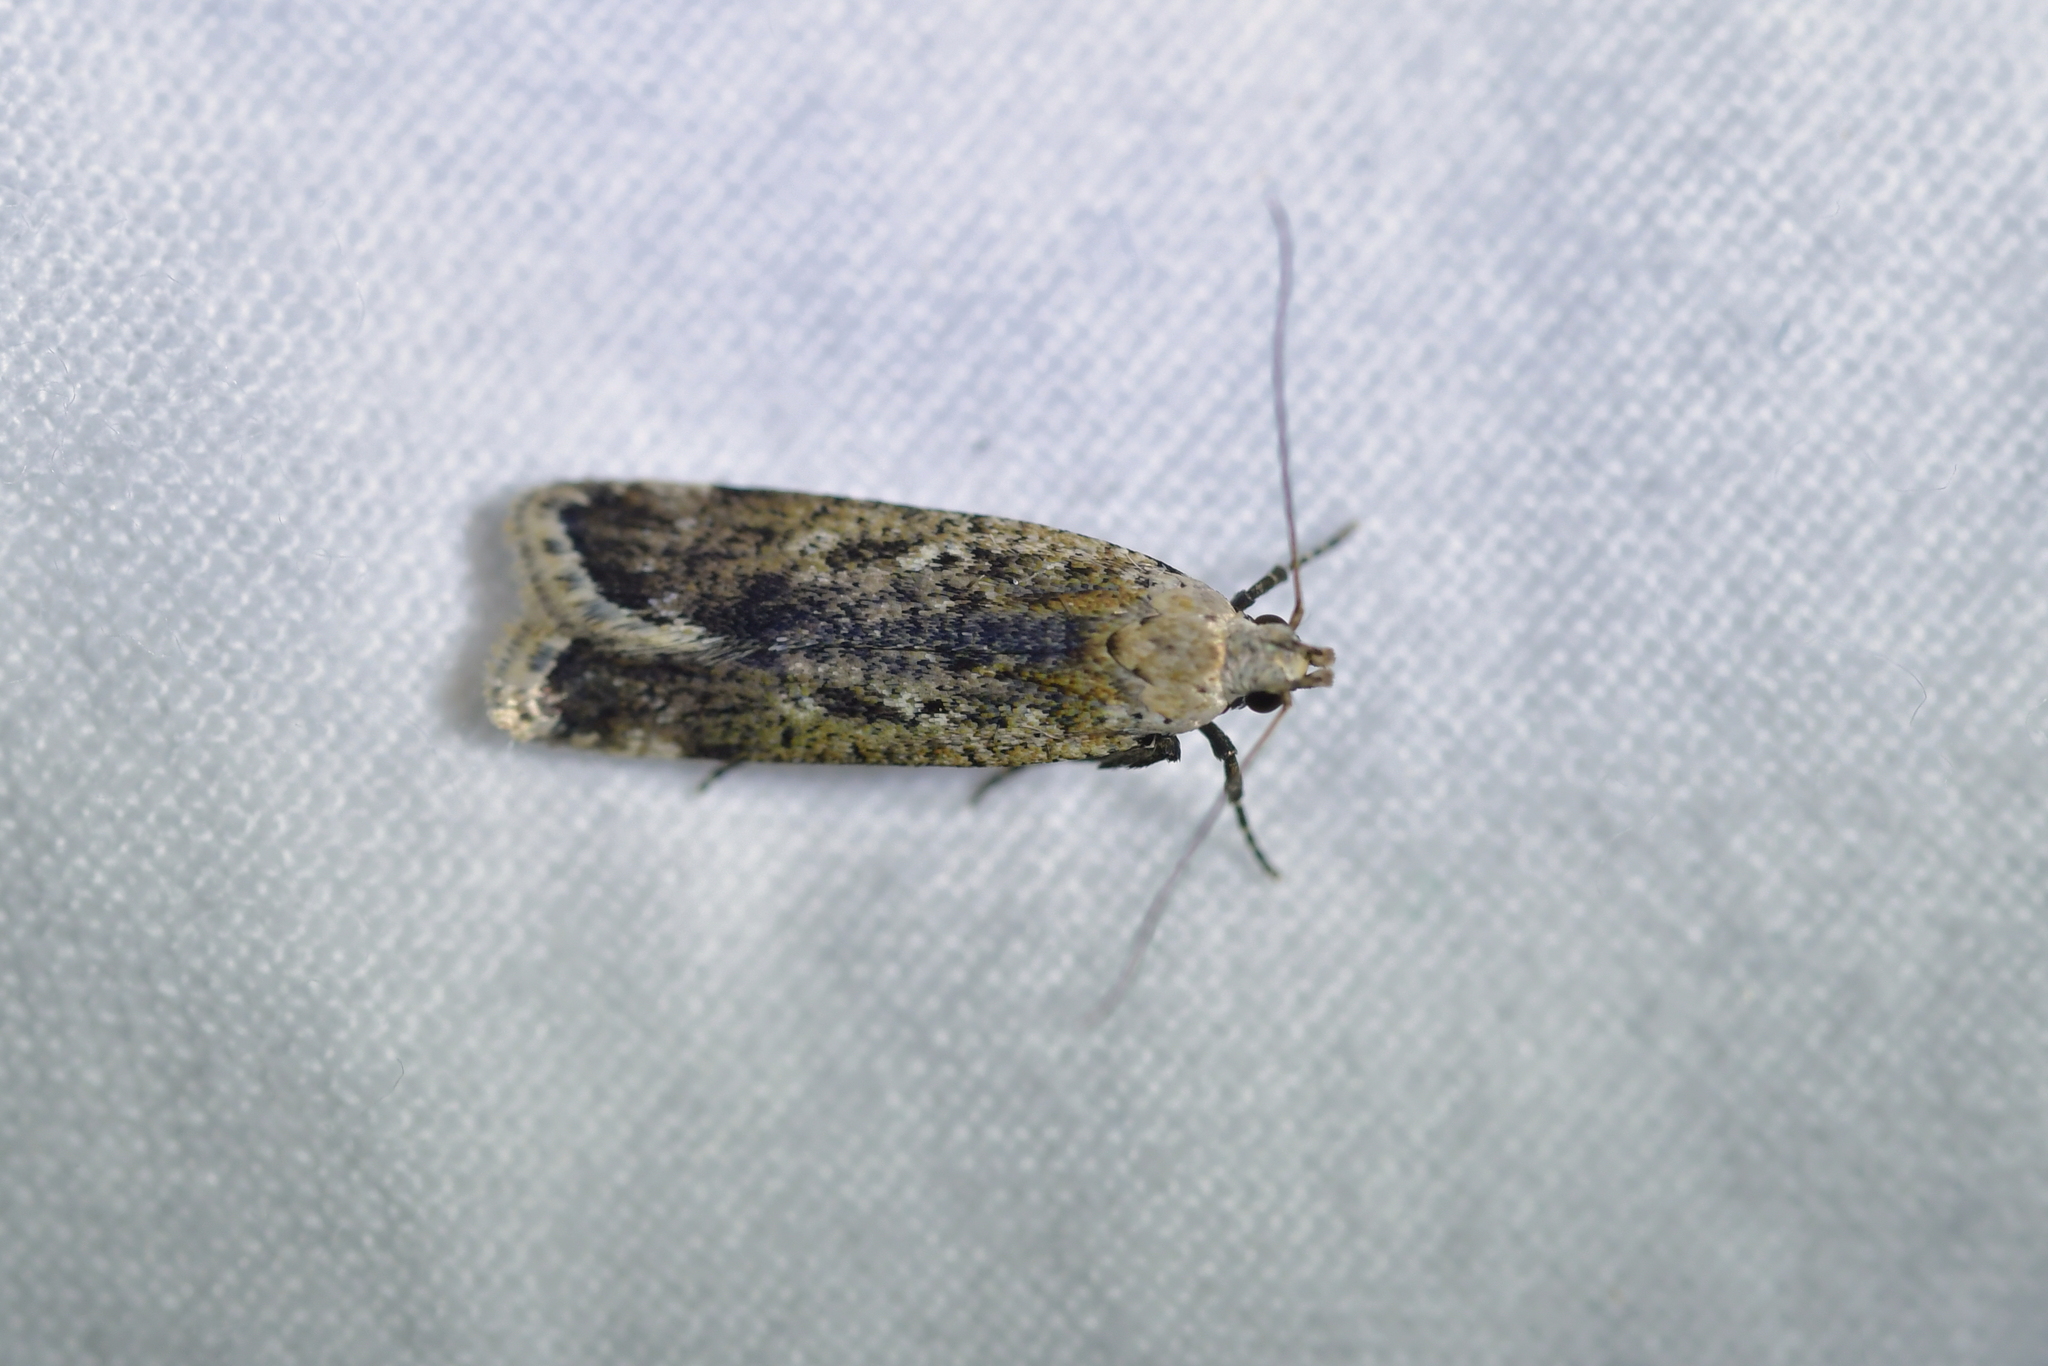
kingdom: Animalia
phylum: Arthropoda
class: Insecta
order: Lepidoptera
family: Gelechiidae
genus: Anisoplaca
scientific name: Anisoplaca achyrota
